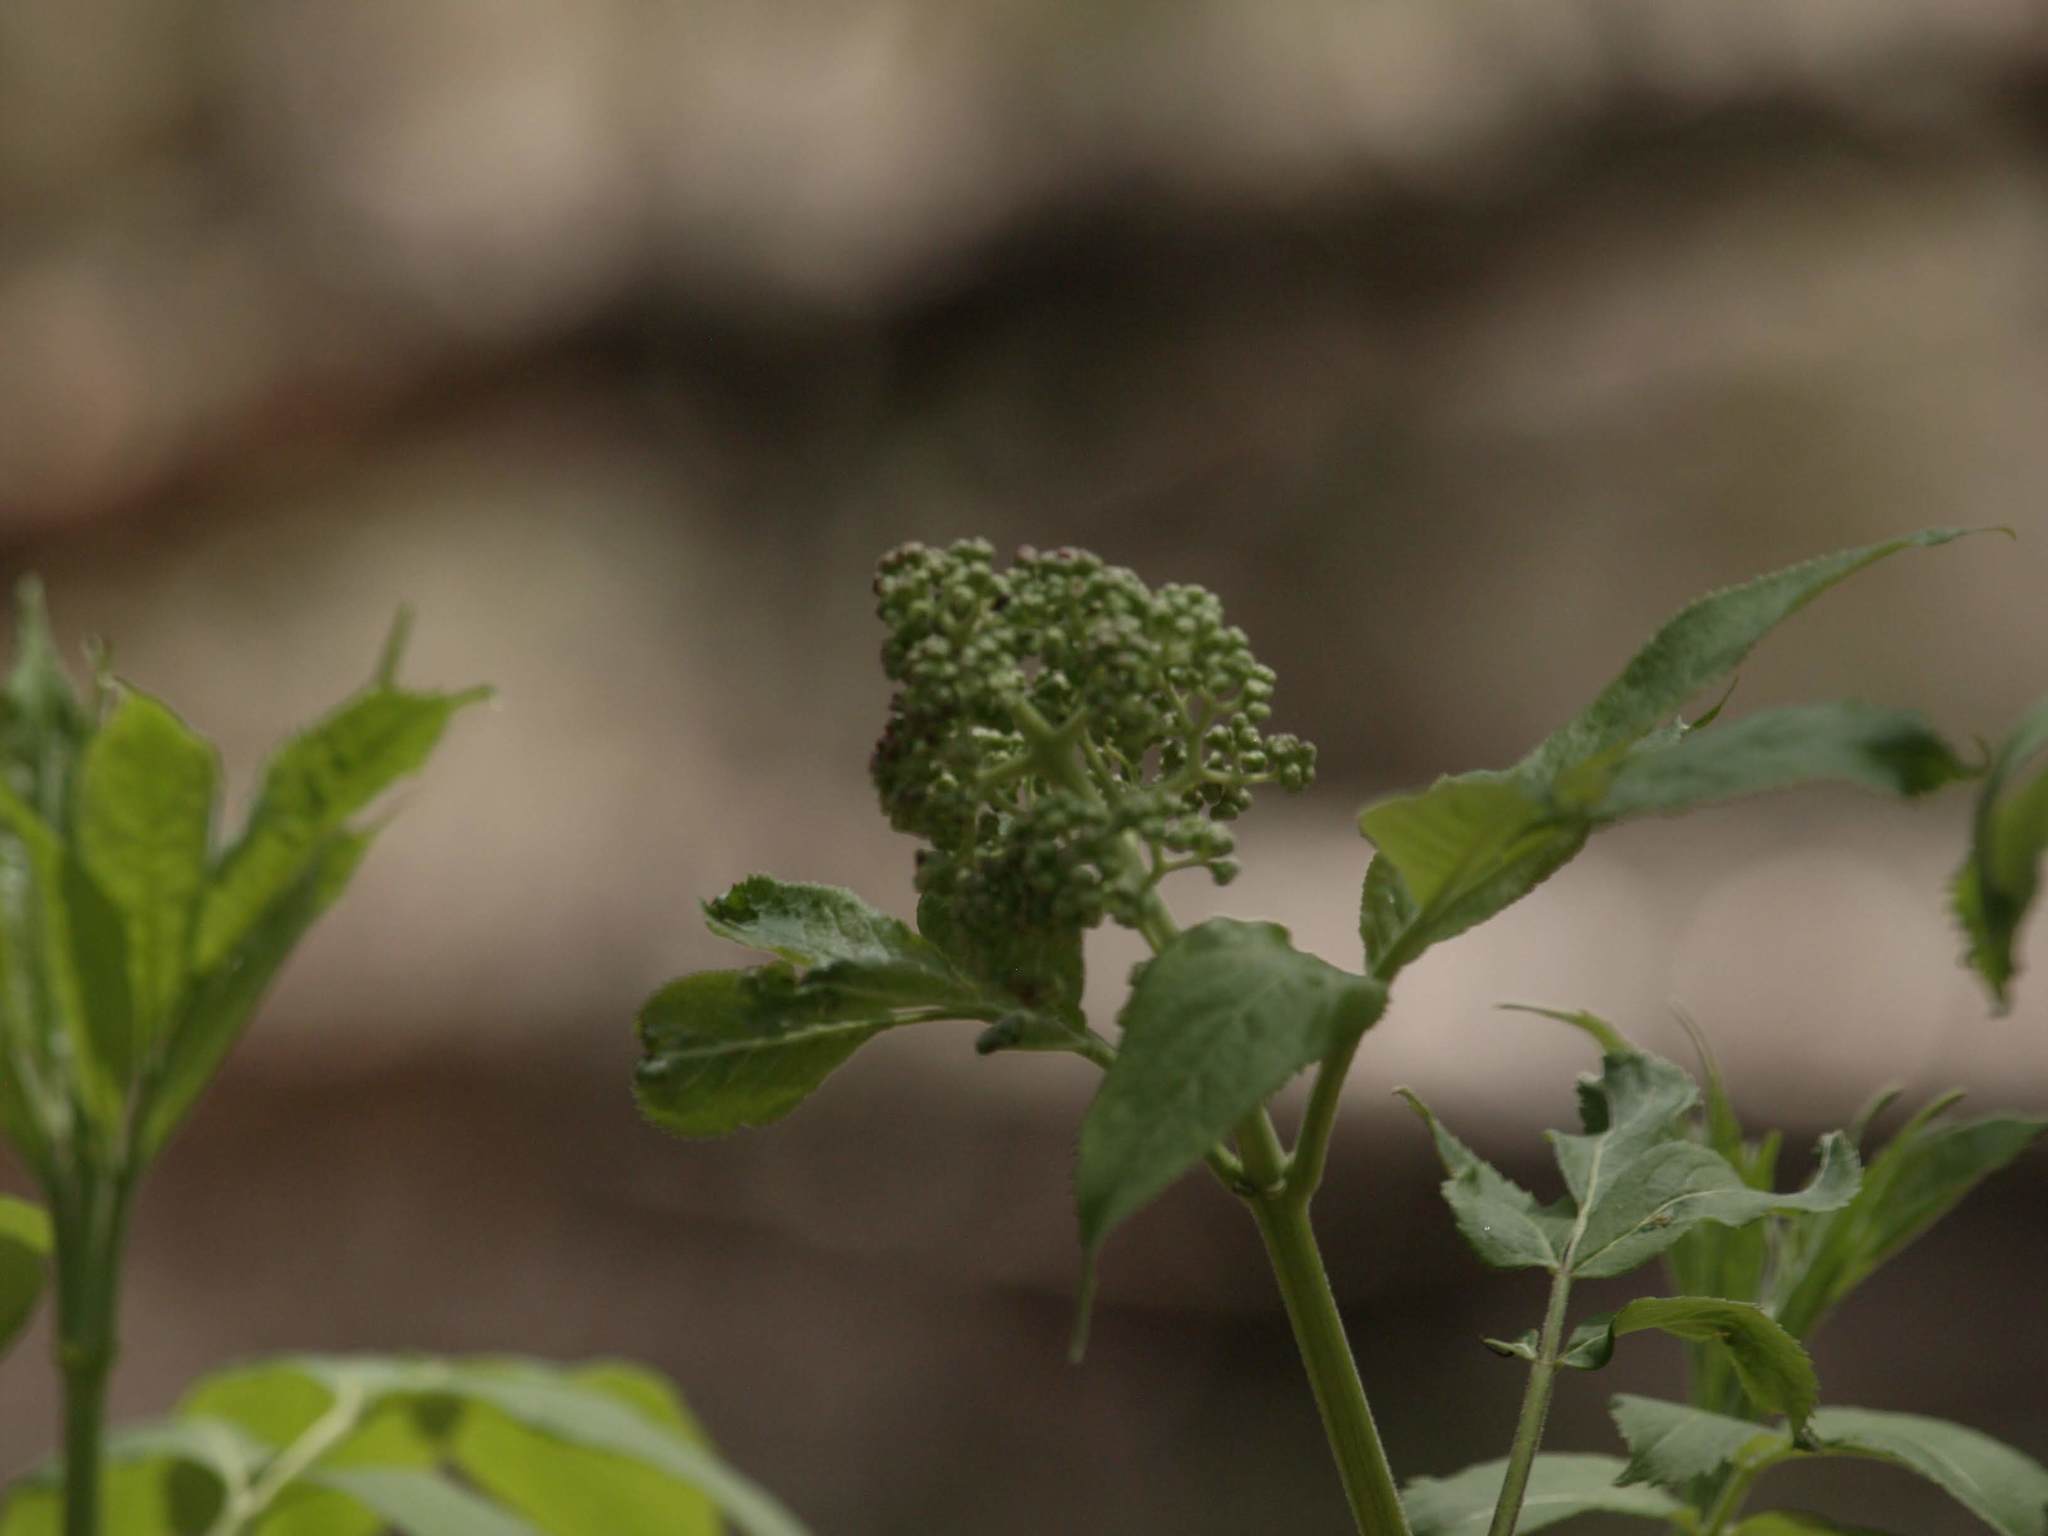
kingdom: Plantae
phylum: Tracheophyta
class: Magnoliopsida
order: Dipsacales
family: Viburnaceae
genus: Sambucus
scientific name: Sambucus racemosa
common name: Red-berried elder
